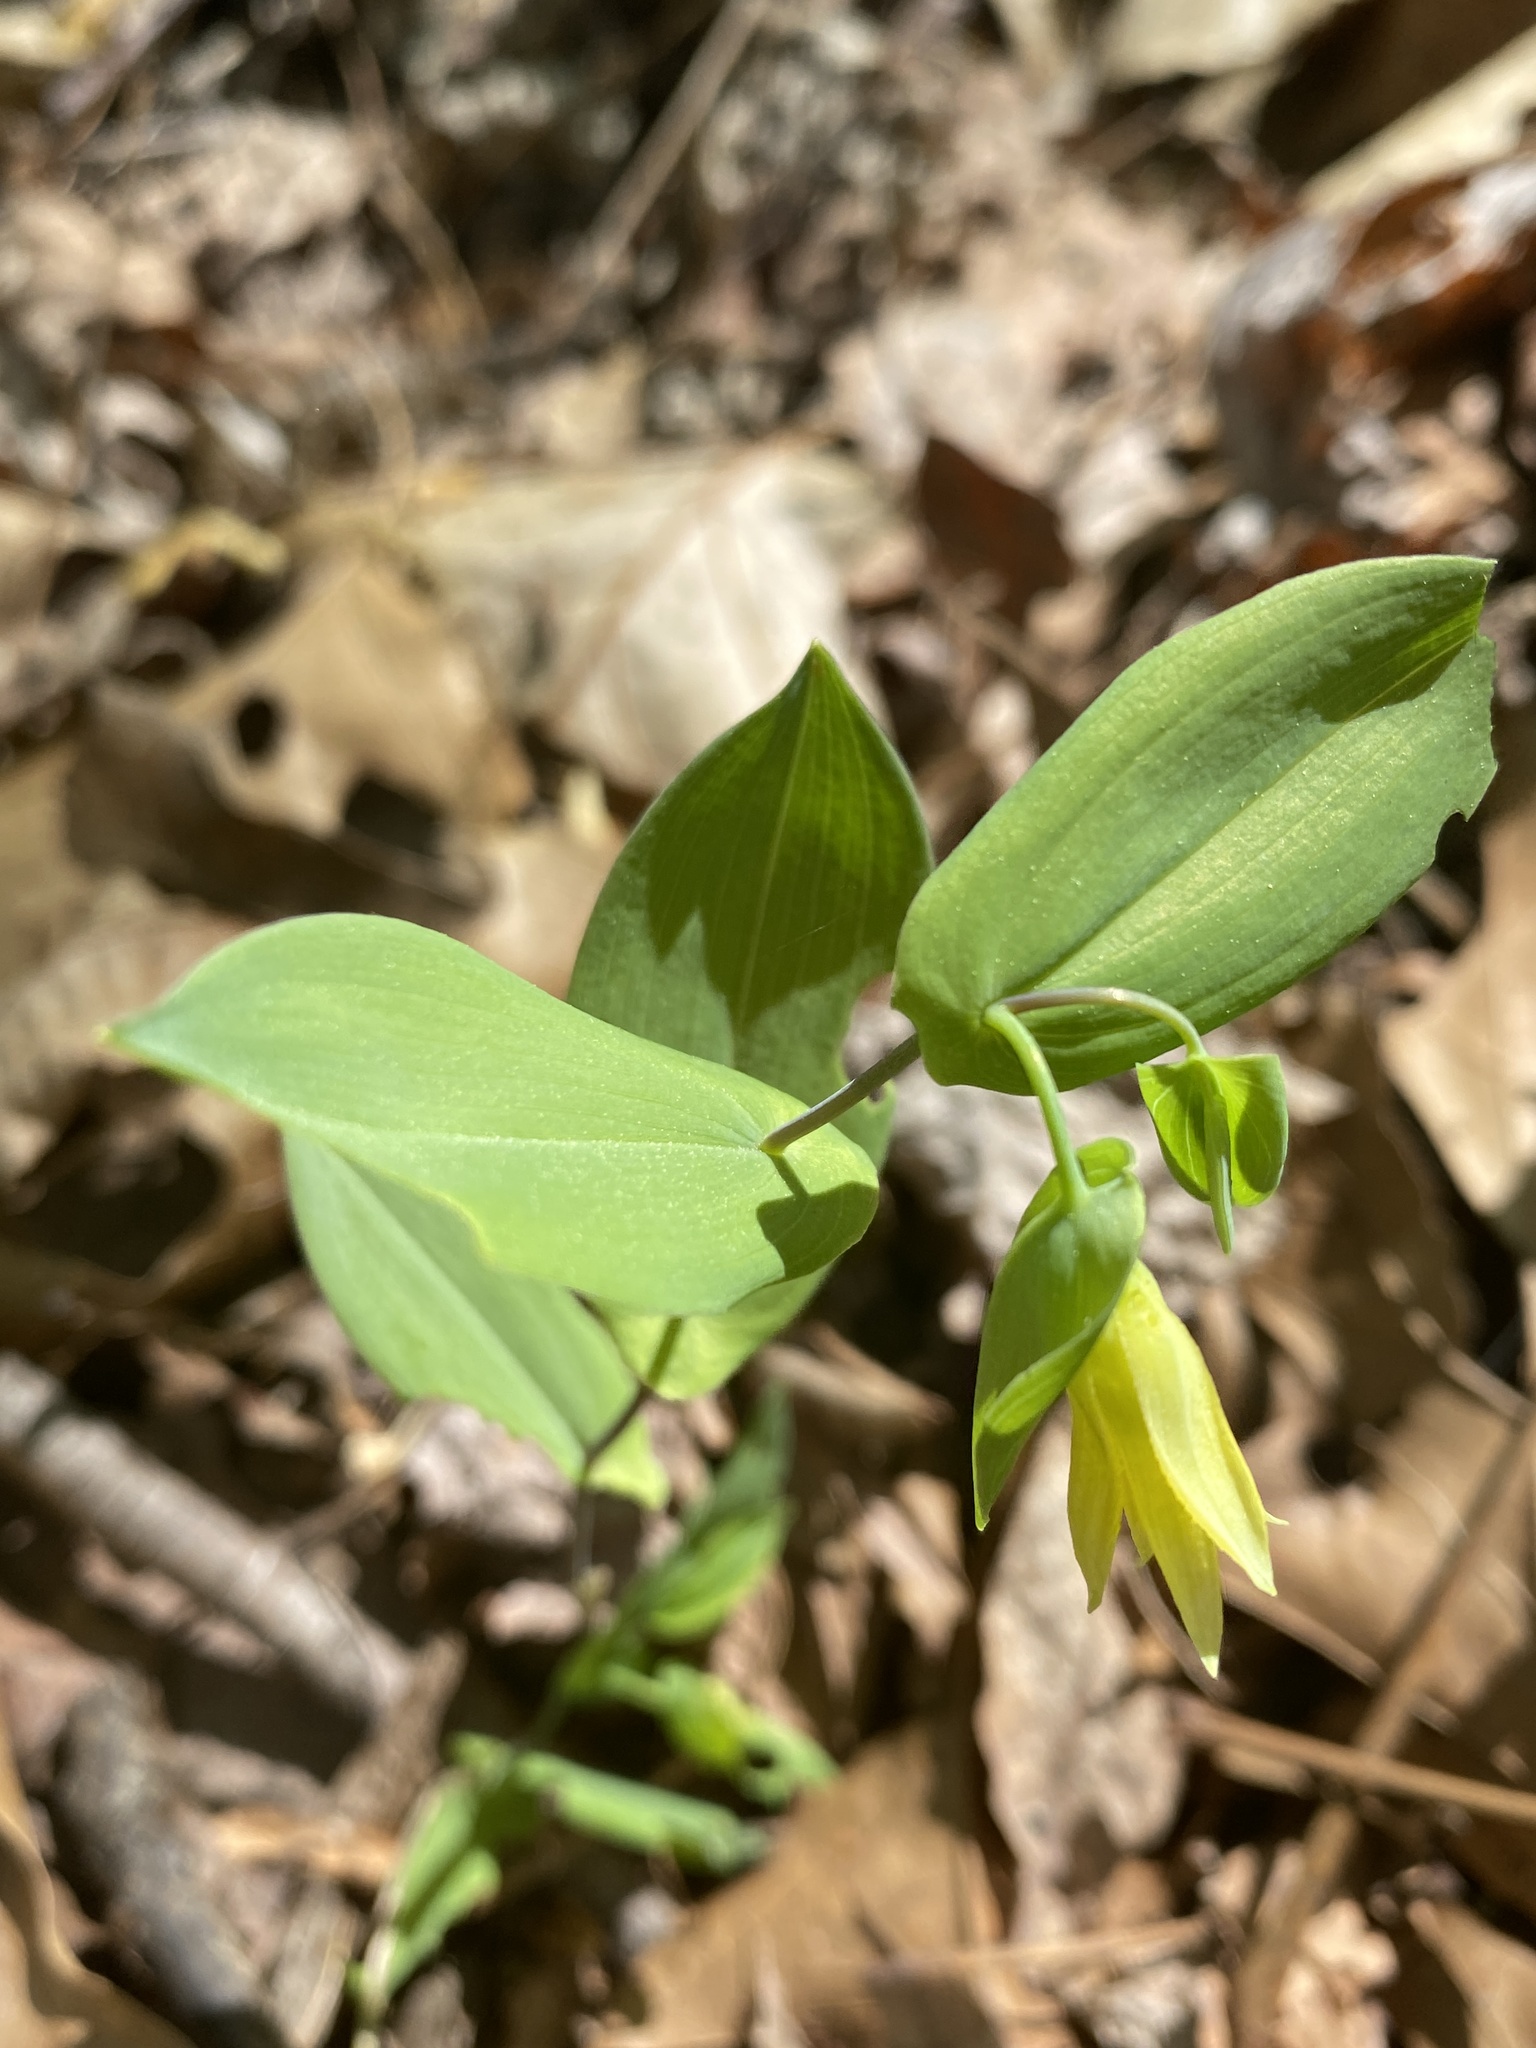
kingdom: Plantae
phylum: Tracheophyta
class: Liliopsida
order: Liliales
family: Colchicaceae
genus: Uvularia
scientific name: Uvularia perfoliata
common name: Perfoliate bellwort
